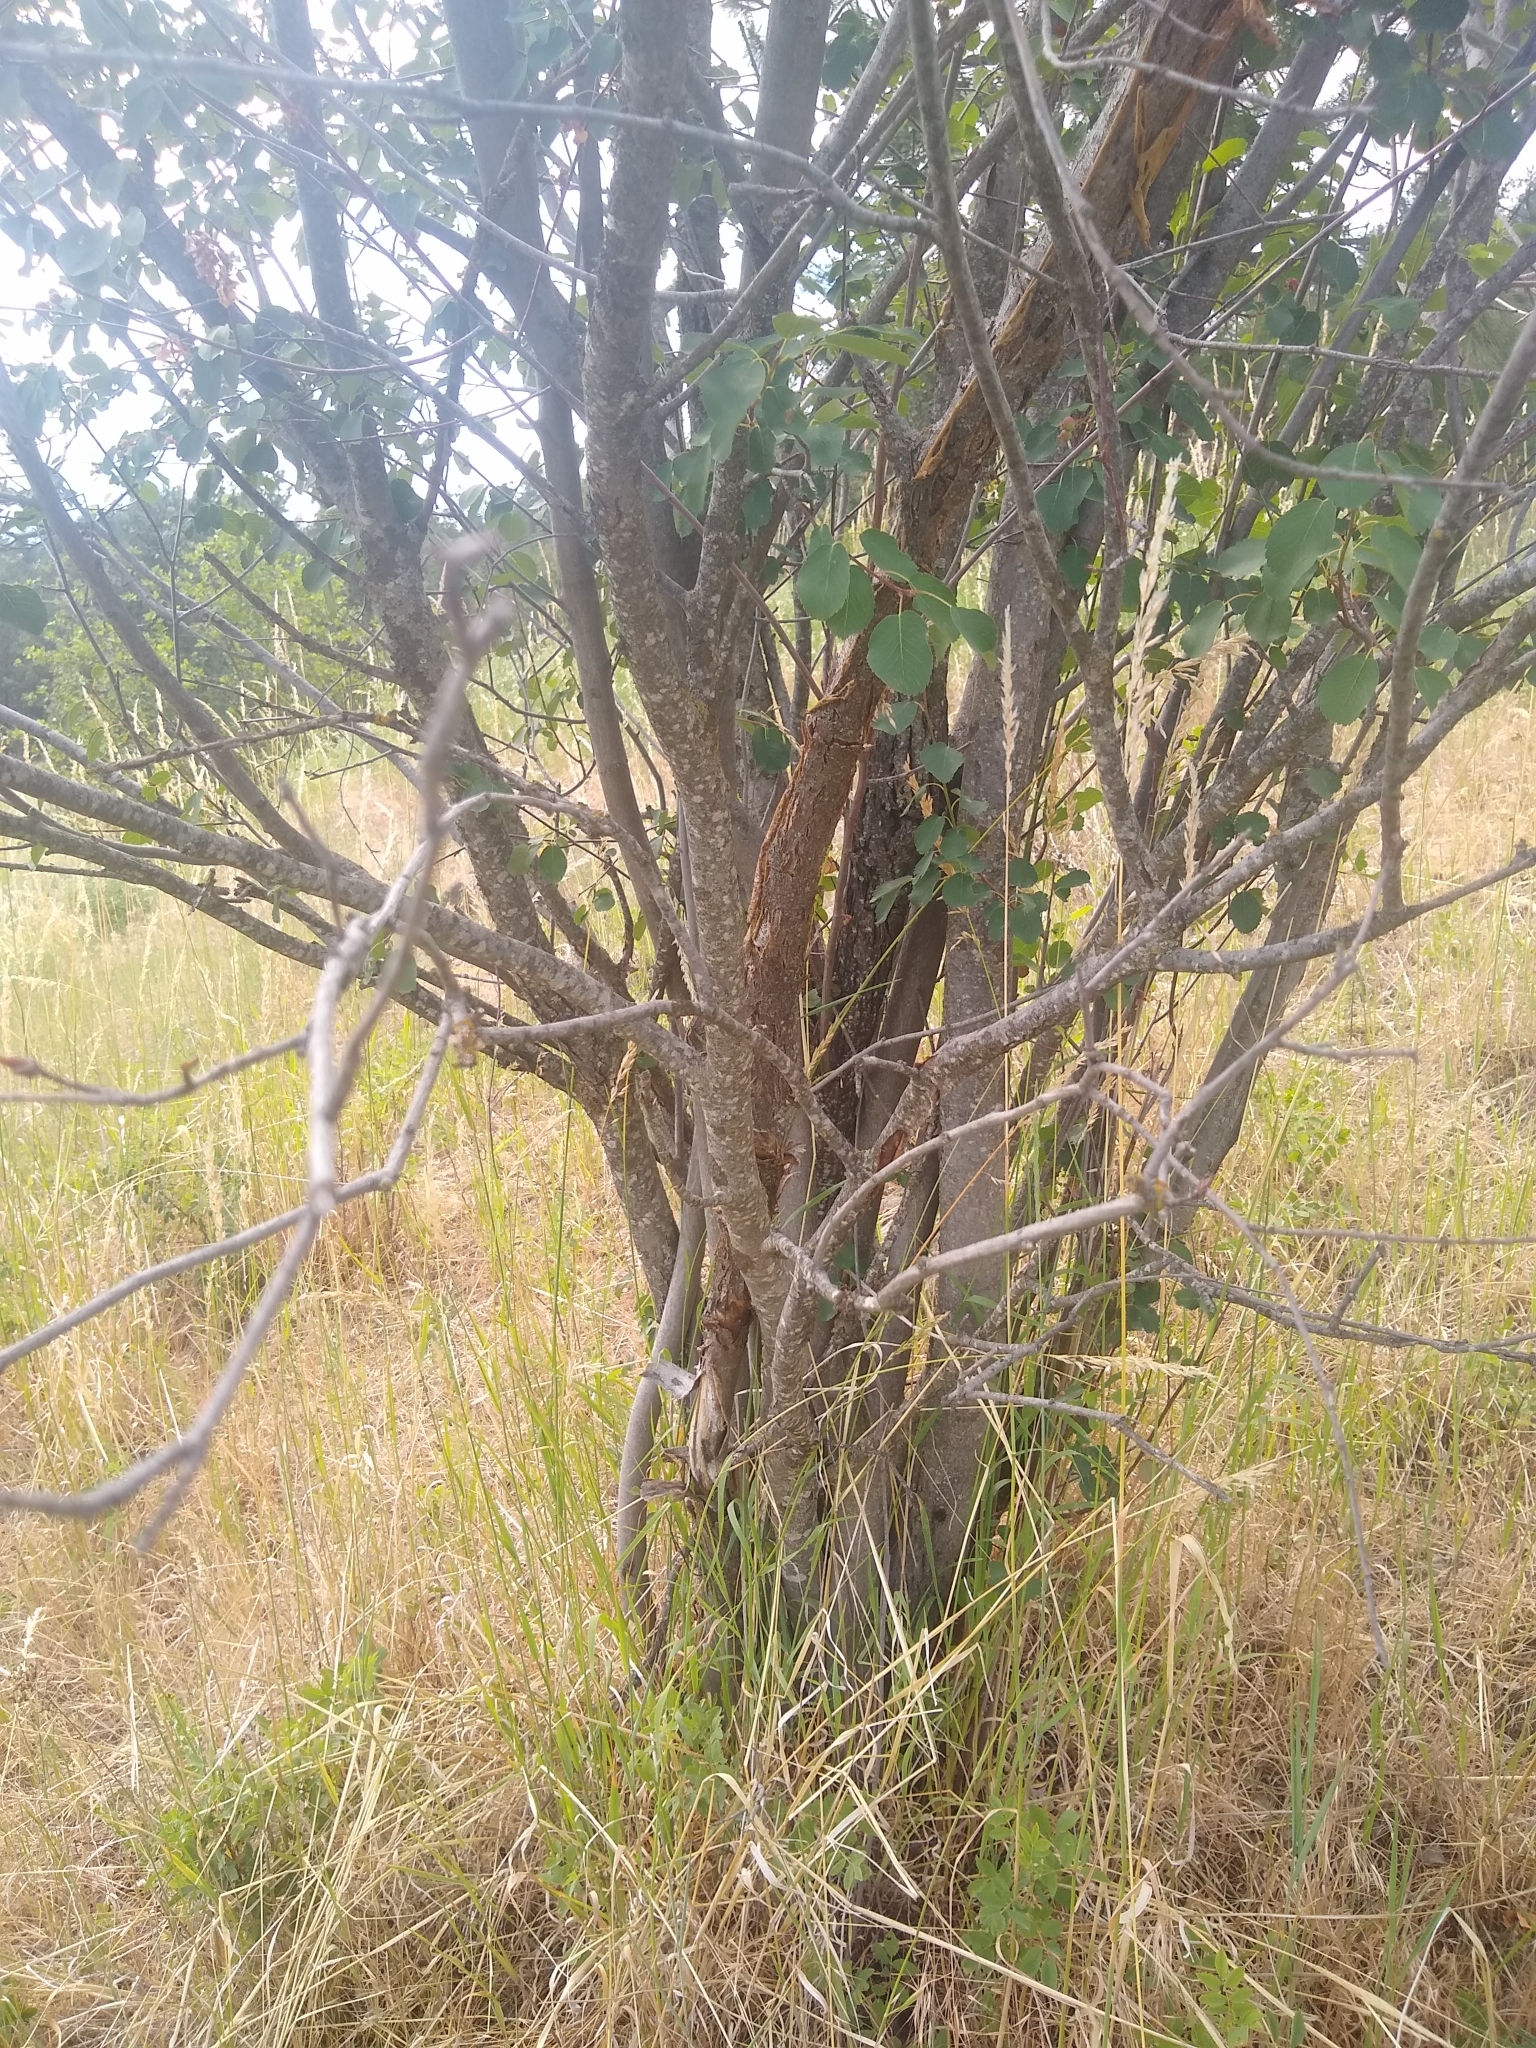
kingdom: Plantae
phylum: Tracheophyta
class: Magnoliopsida
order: Rosales
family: Rosaceae
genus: Amelanchier
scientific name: Amelanchier alnifolia
